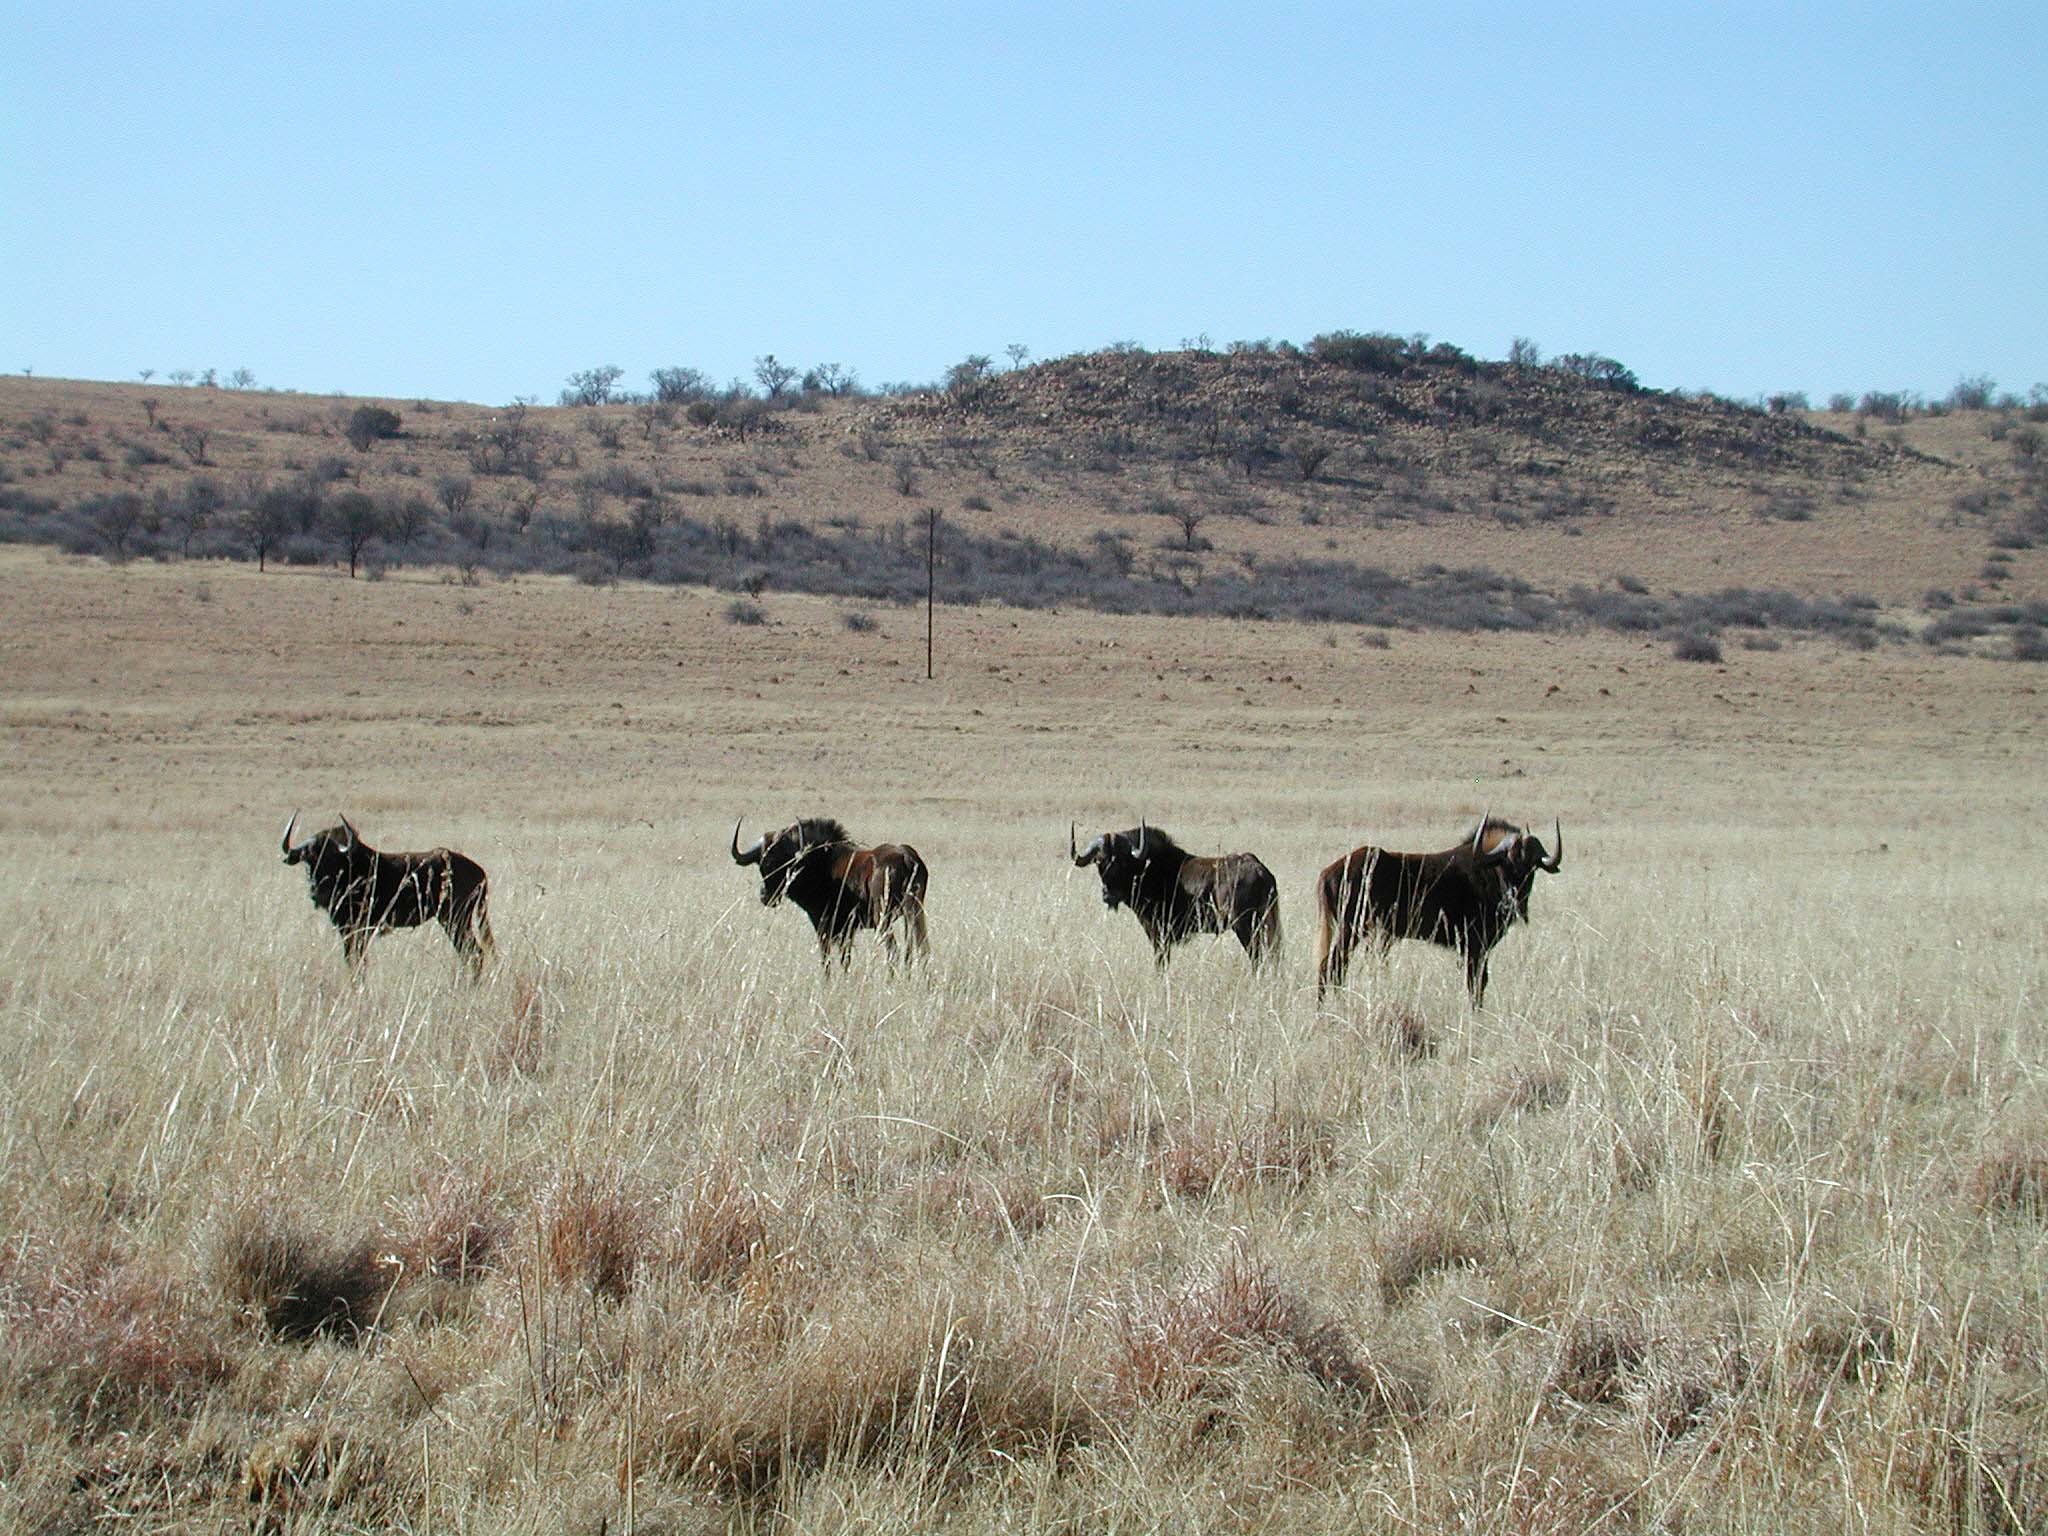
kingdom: Animalia
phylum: Chordata
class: Mammalia
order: Artiodactyla
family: Bovidae
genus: Connochaetes
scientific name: Connochaetes gnou
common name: Black wildebeest
